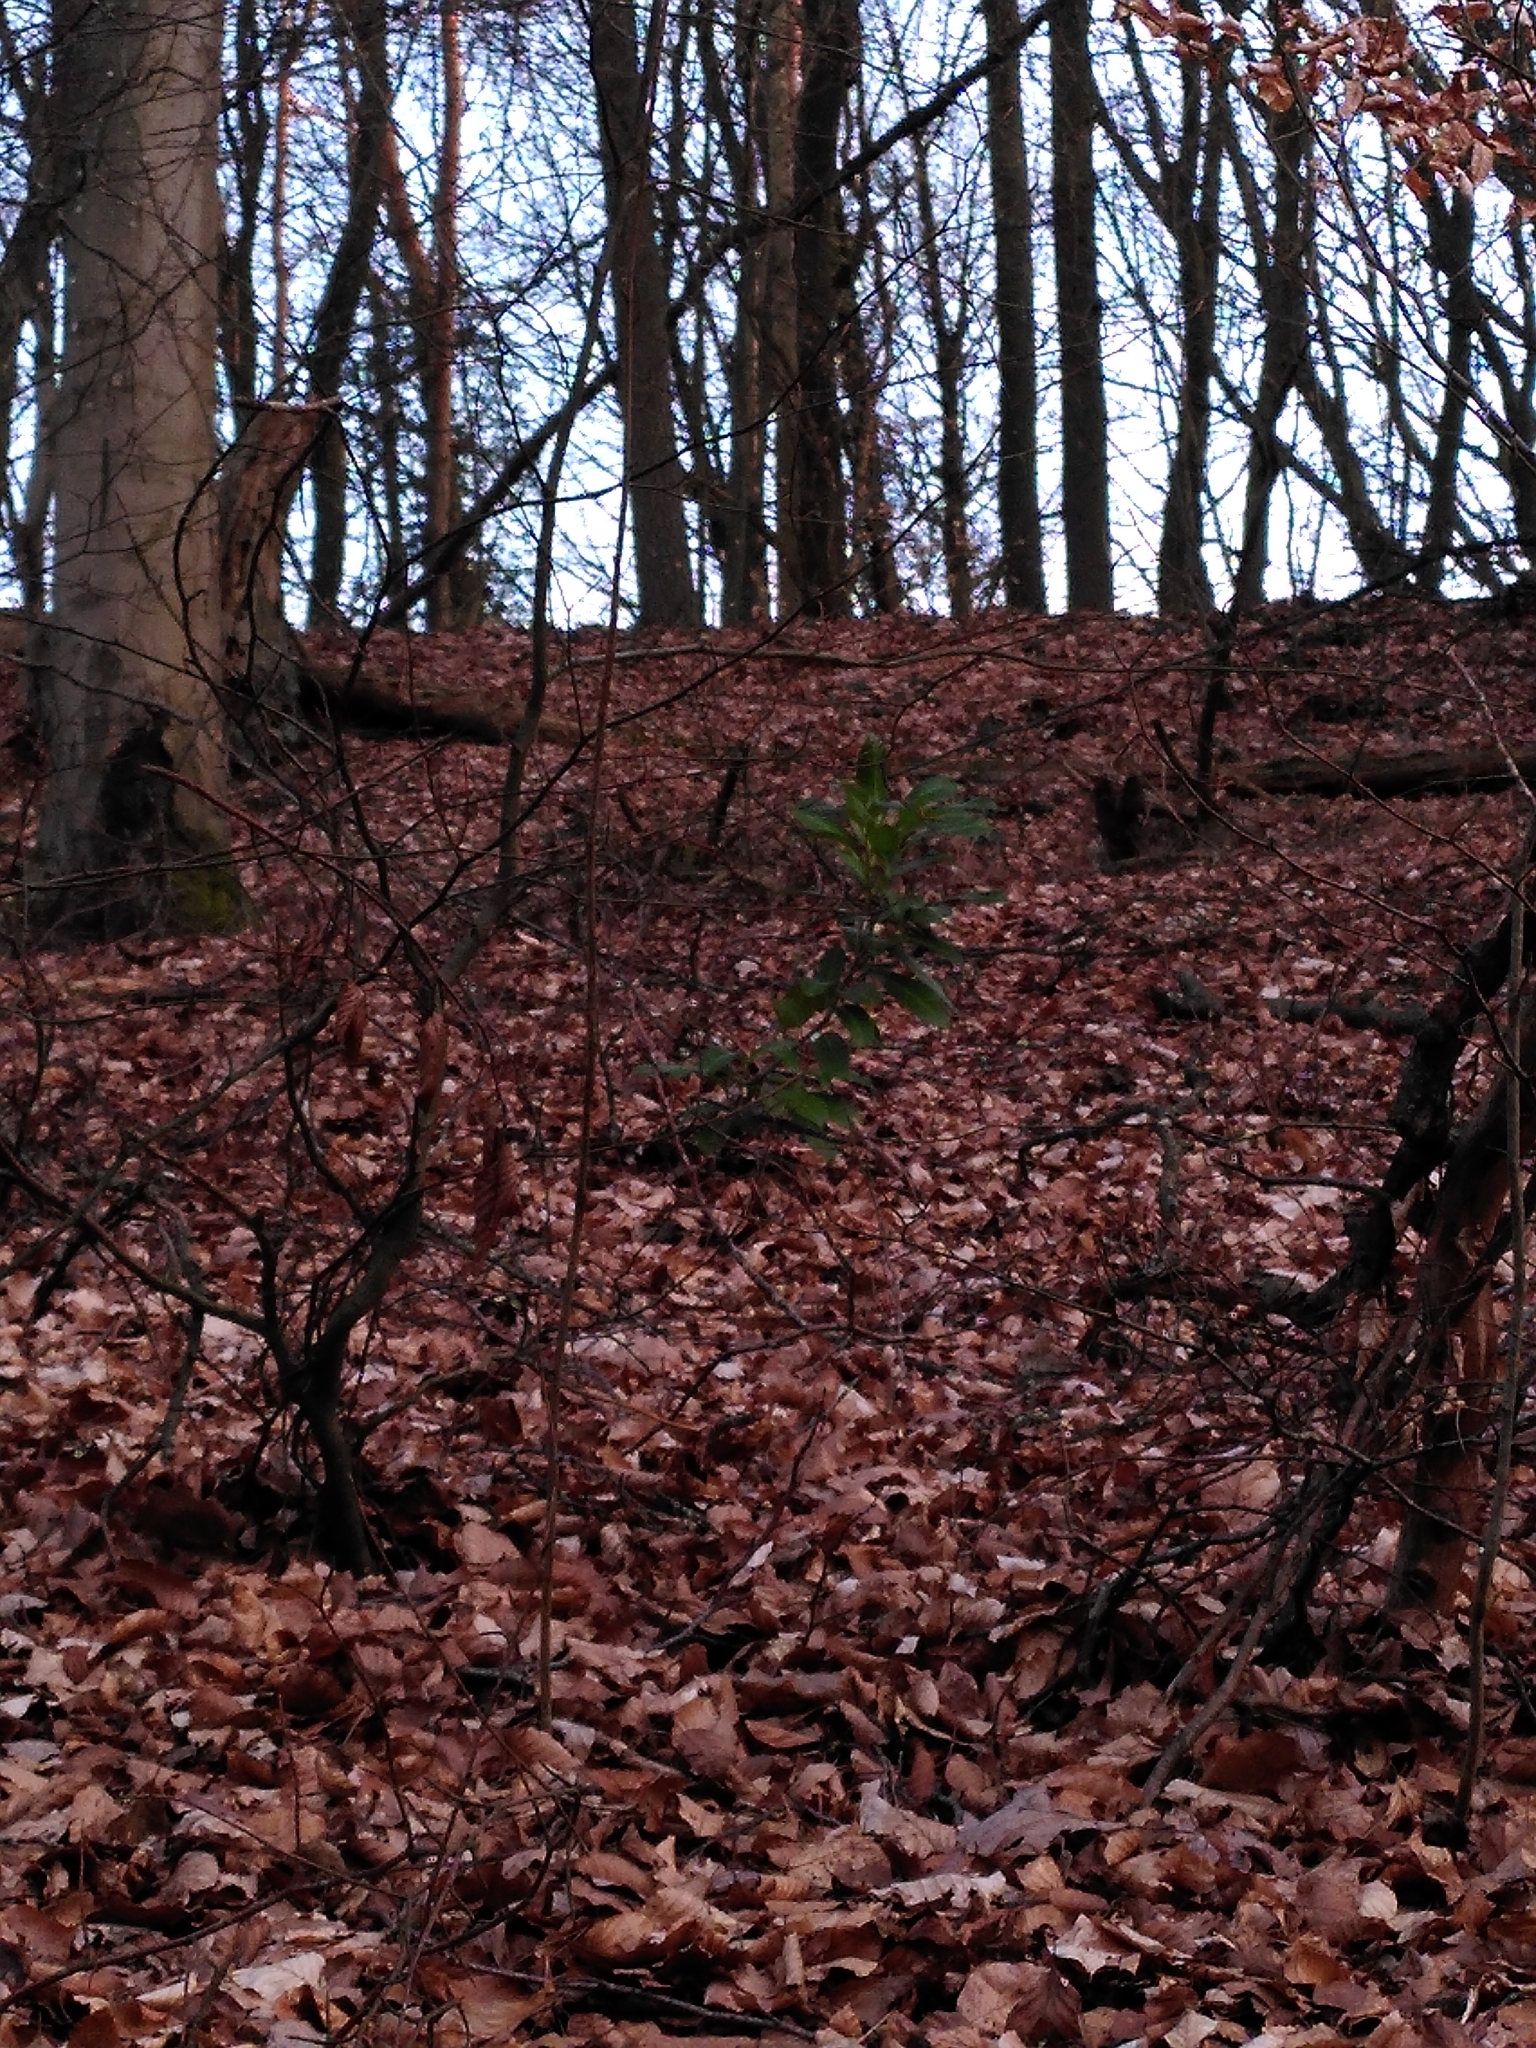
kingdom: Plantae
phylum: Tracheophyta
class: Magnoliopsida
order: Rosales
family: Rosaceae
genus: Prunus
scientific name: Prunus laurocerasus
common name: Cherry laurel
